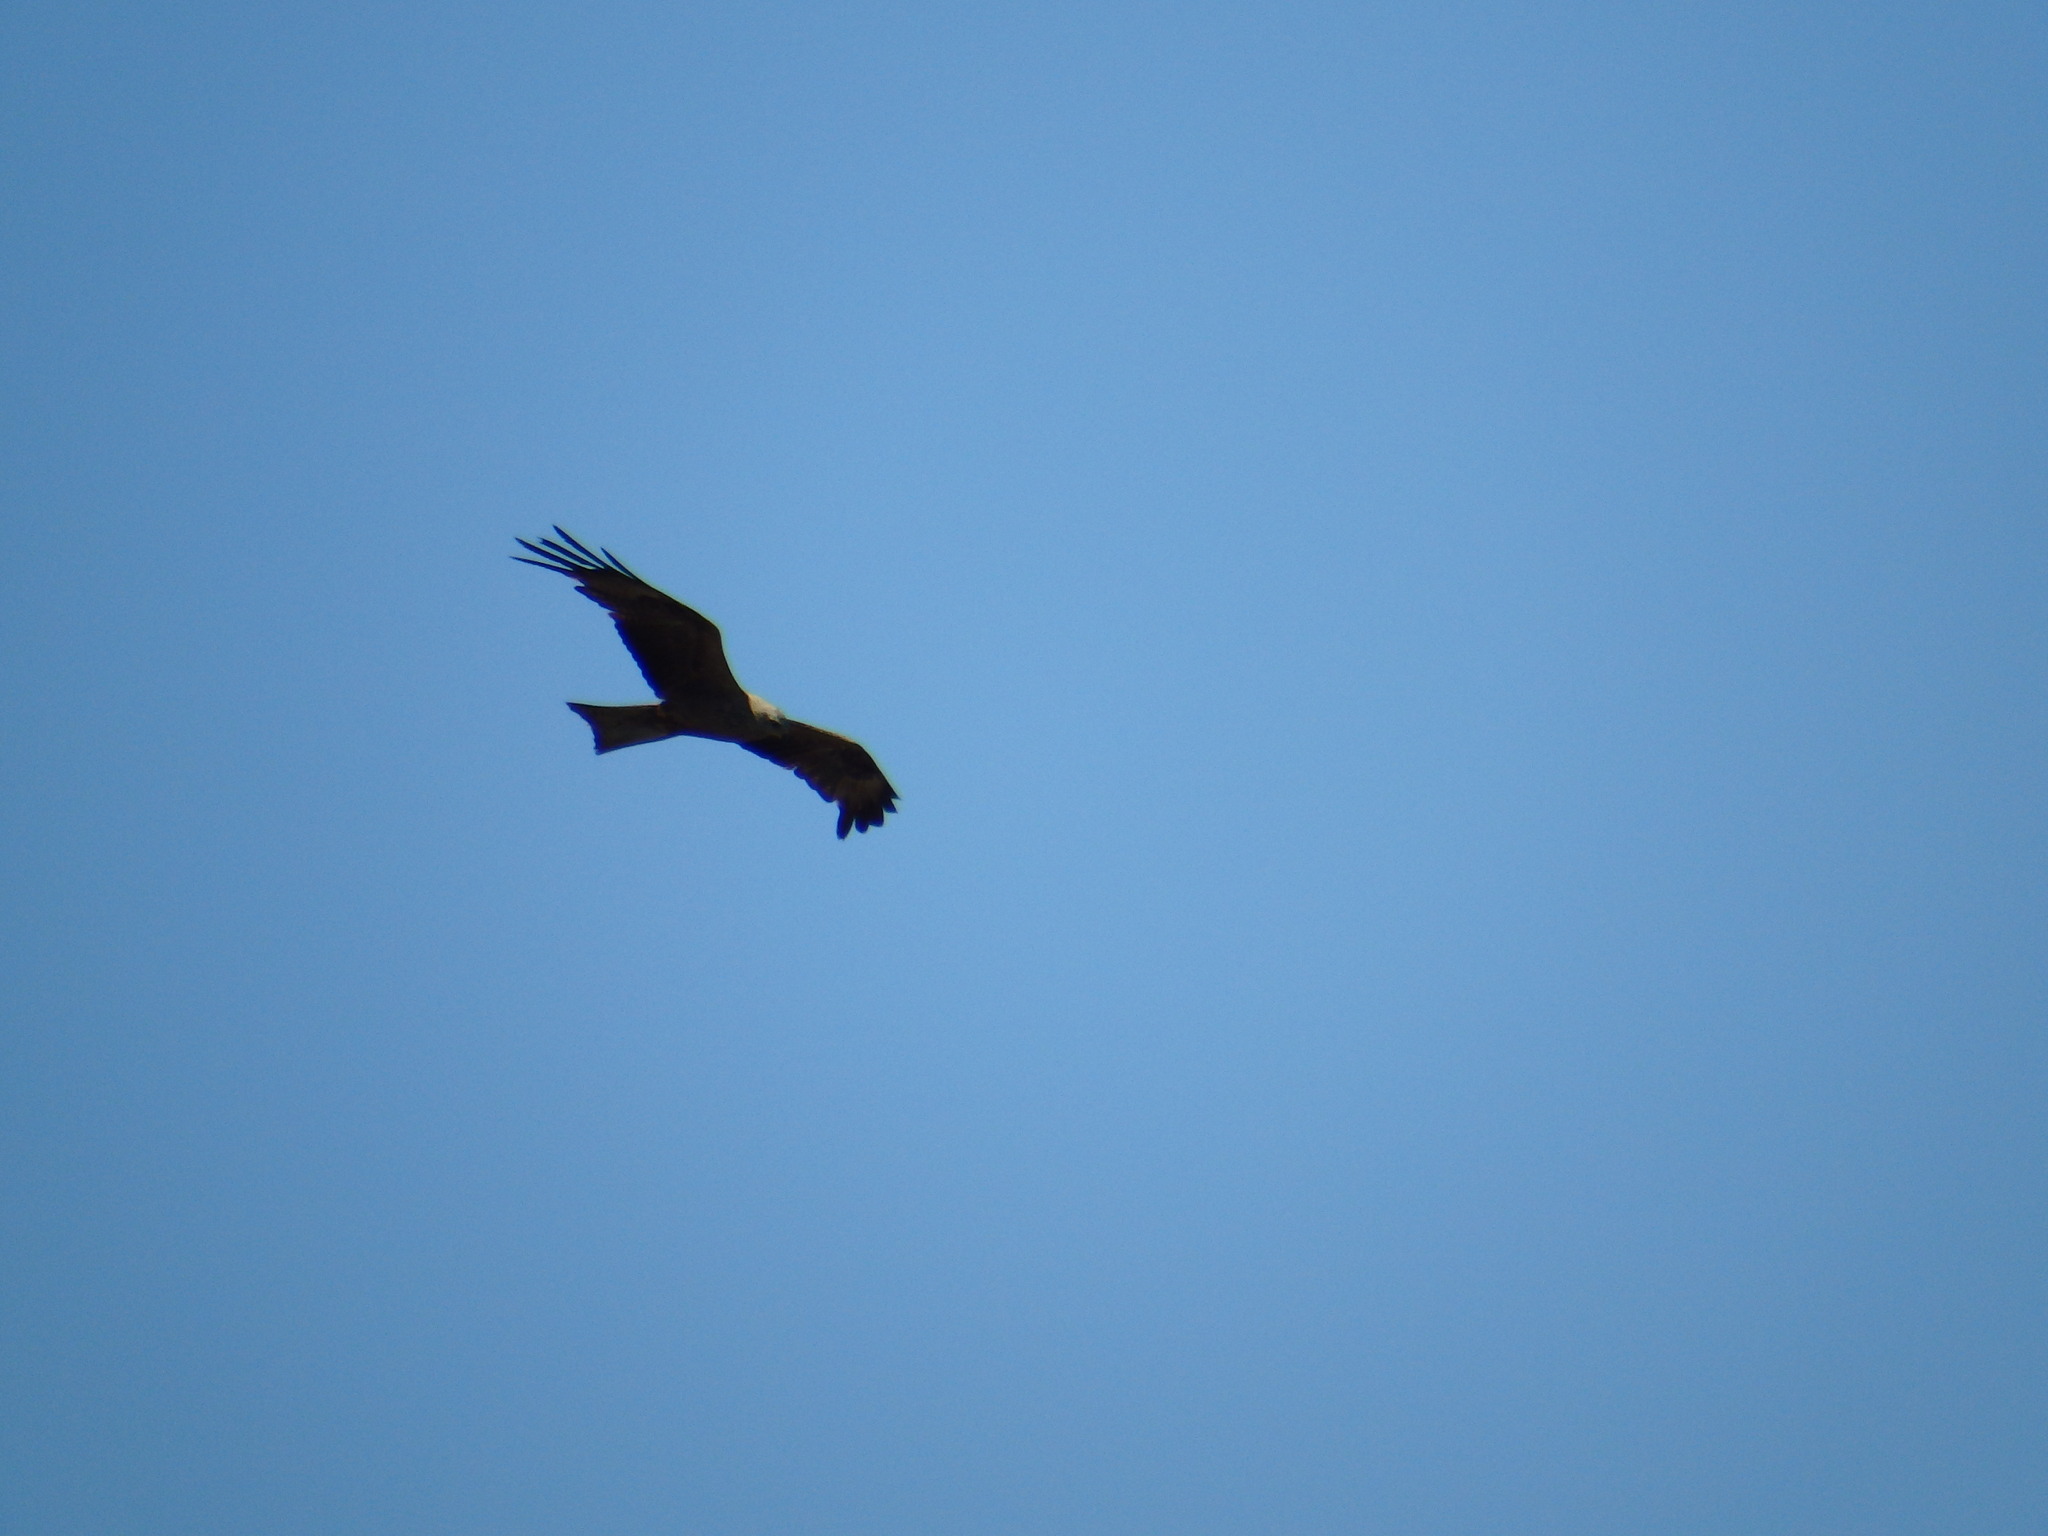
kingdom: Animalia
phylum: Chordata
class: Aves
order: Accipitriformes
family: Accipitridae
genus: Milvus
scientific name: Milvus migrans
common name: Black kite
